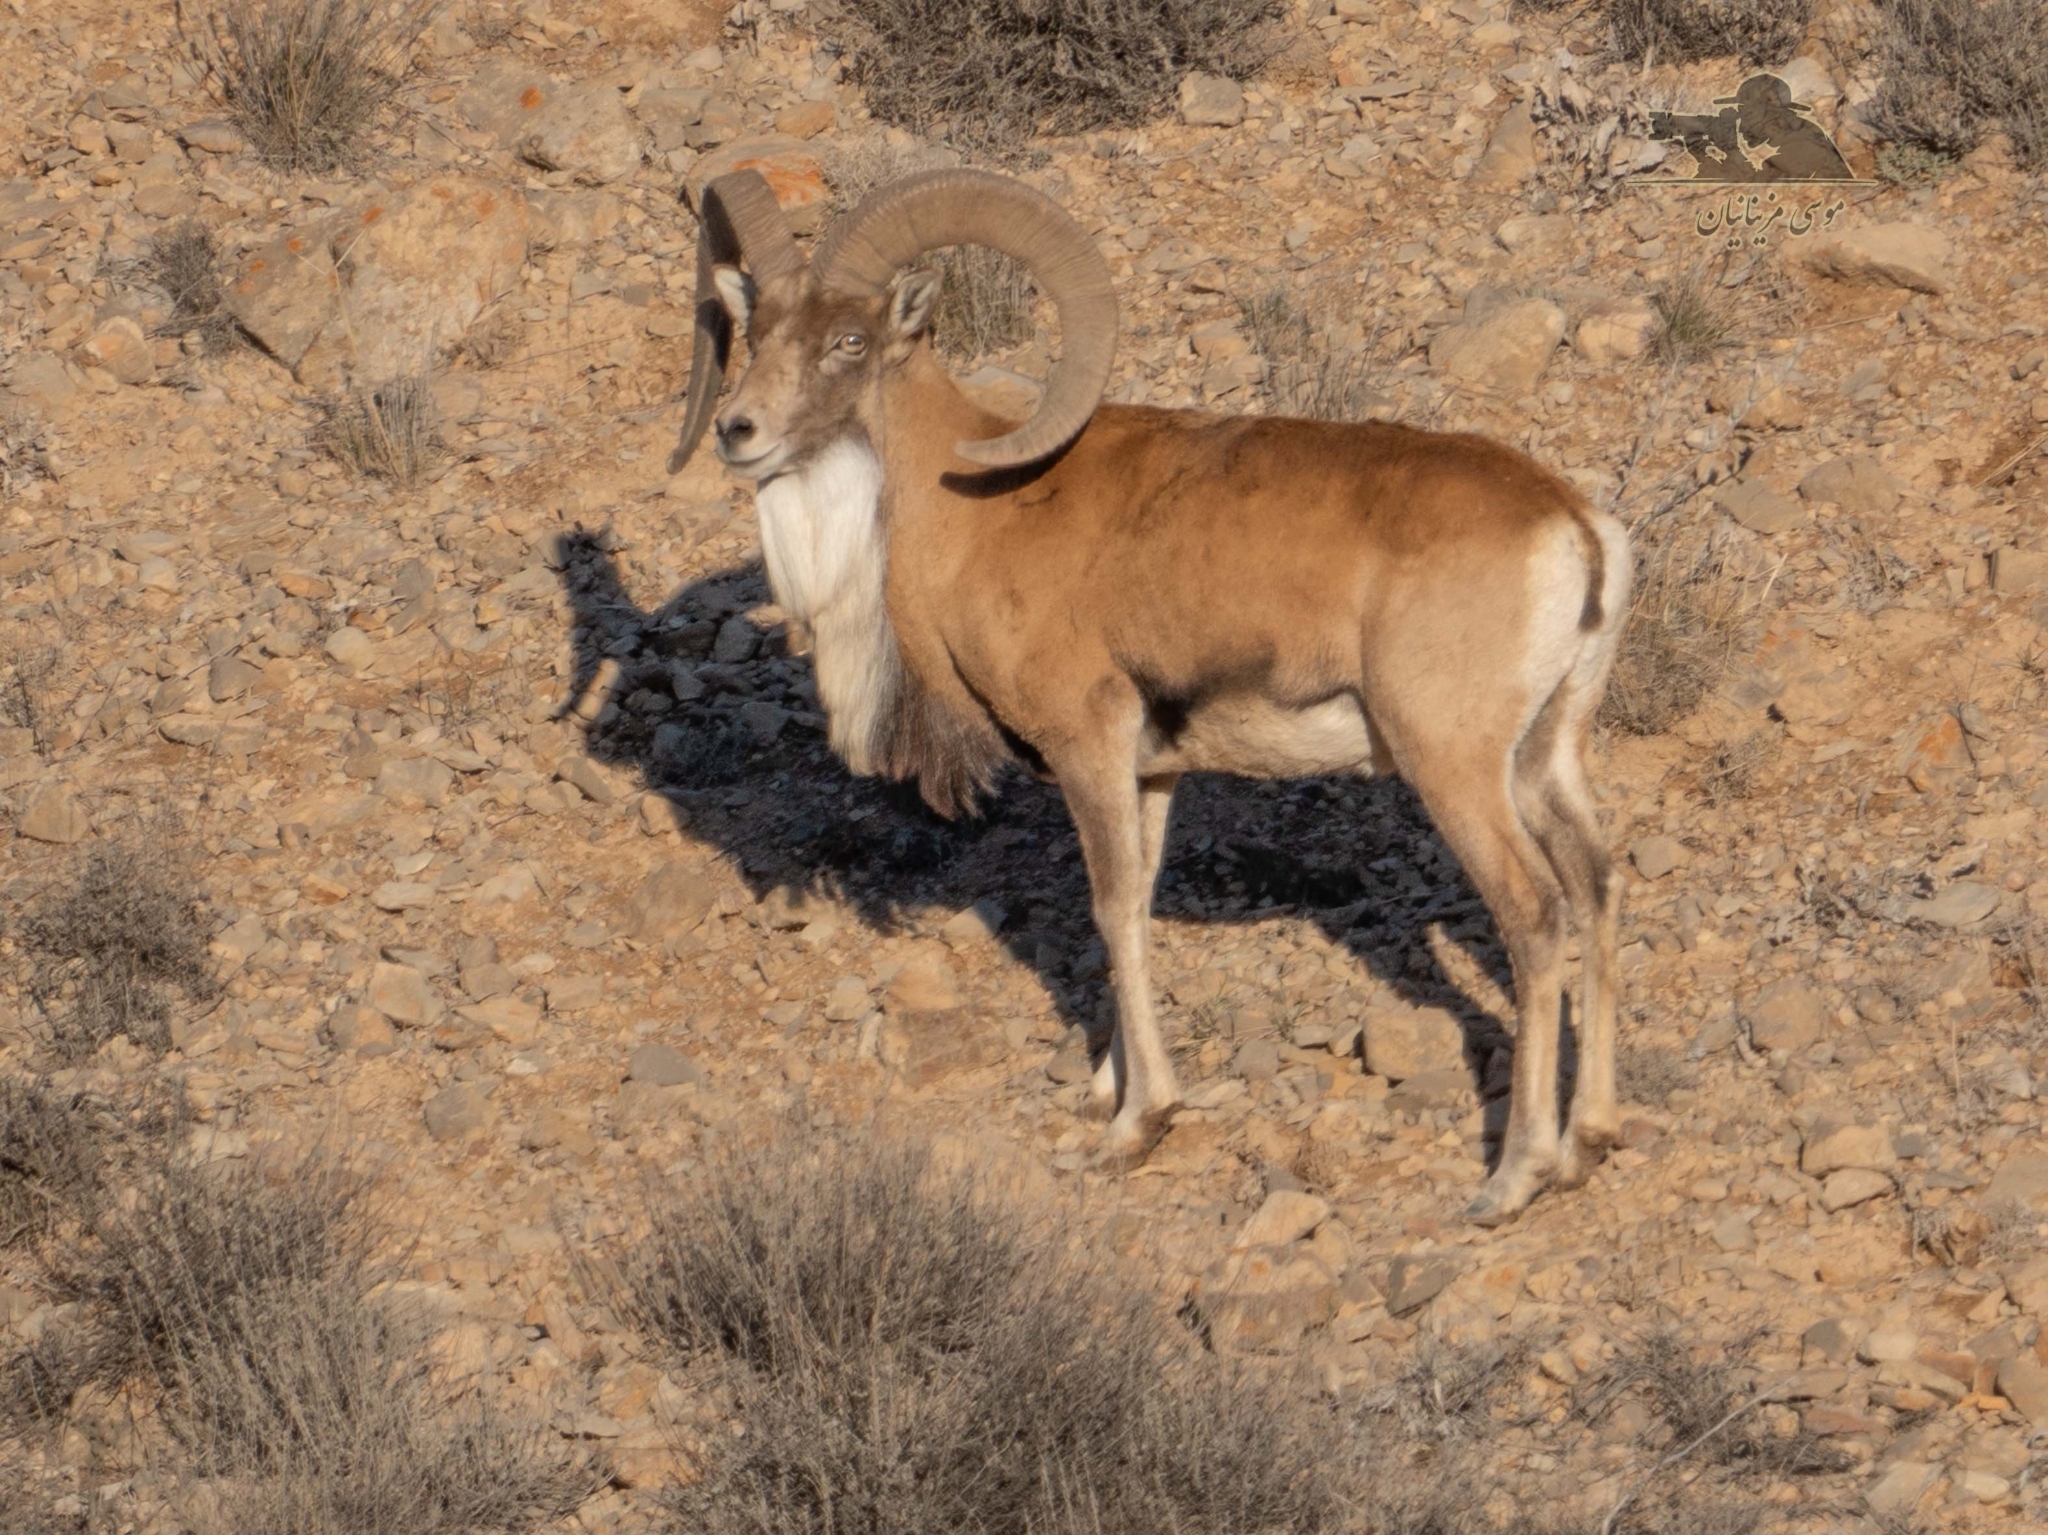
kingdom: Animalia
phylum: Chordata
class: Mammalia
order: Artiodactyla
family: Bovidae
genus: Ovis
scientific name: Ovis aries
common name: Domestic sheep
